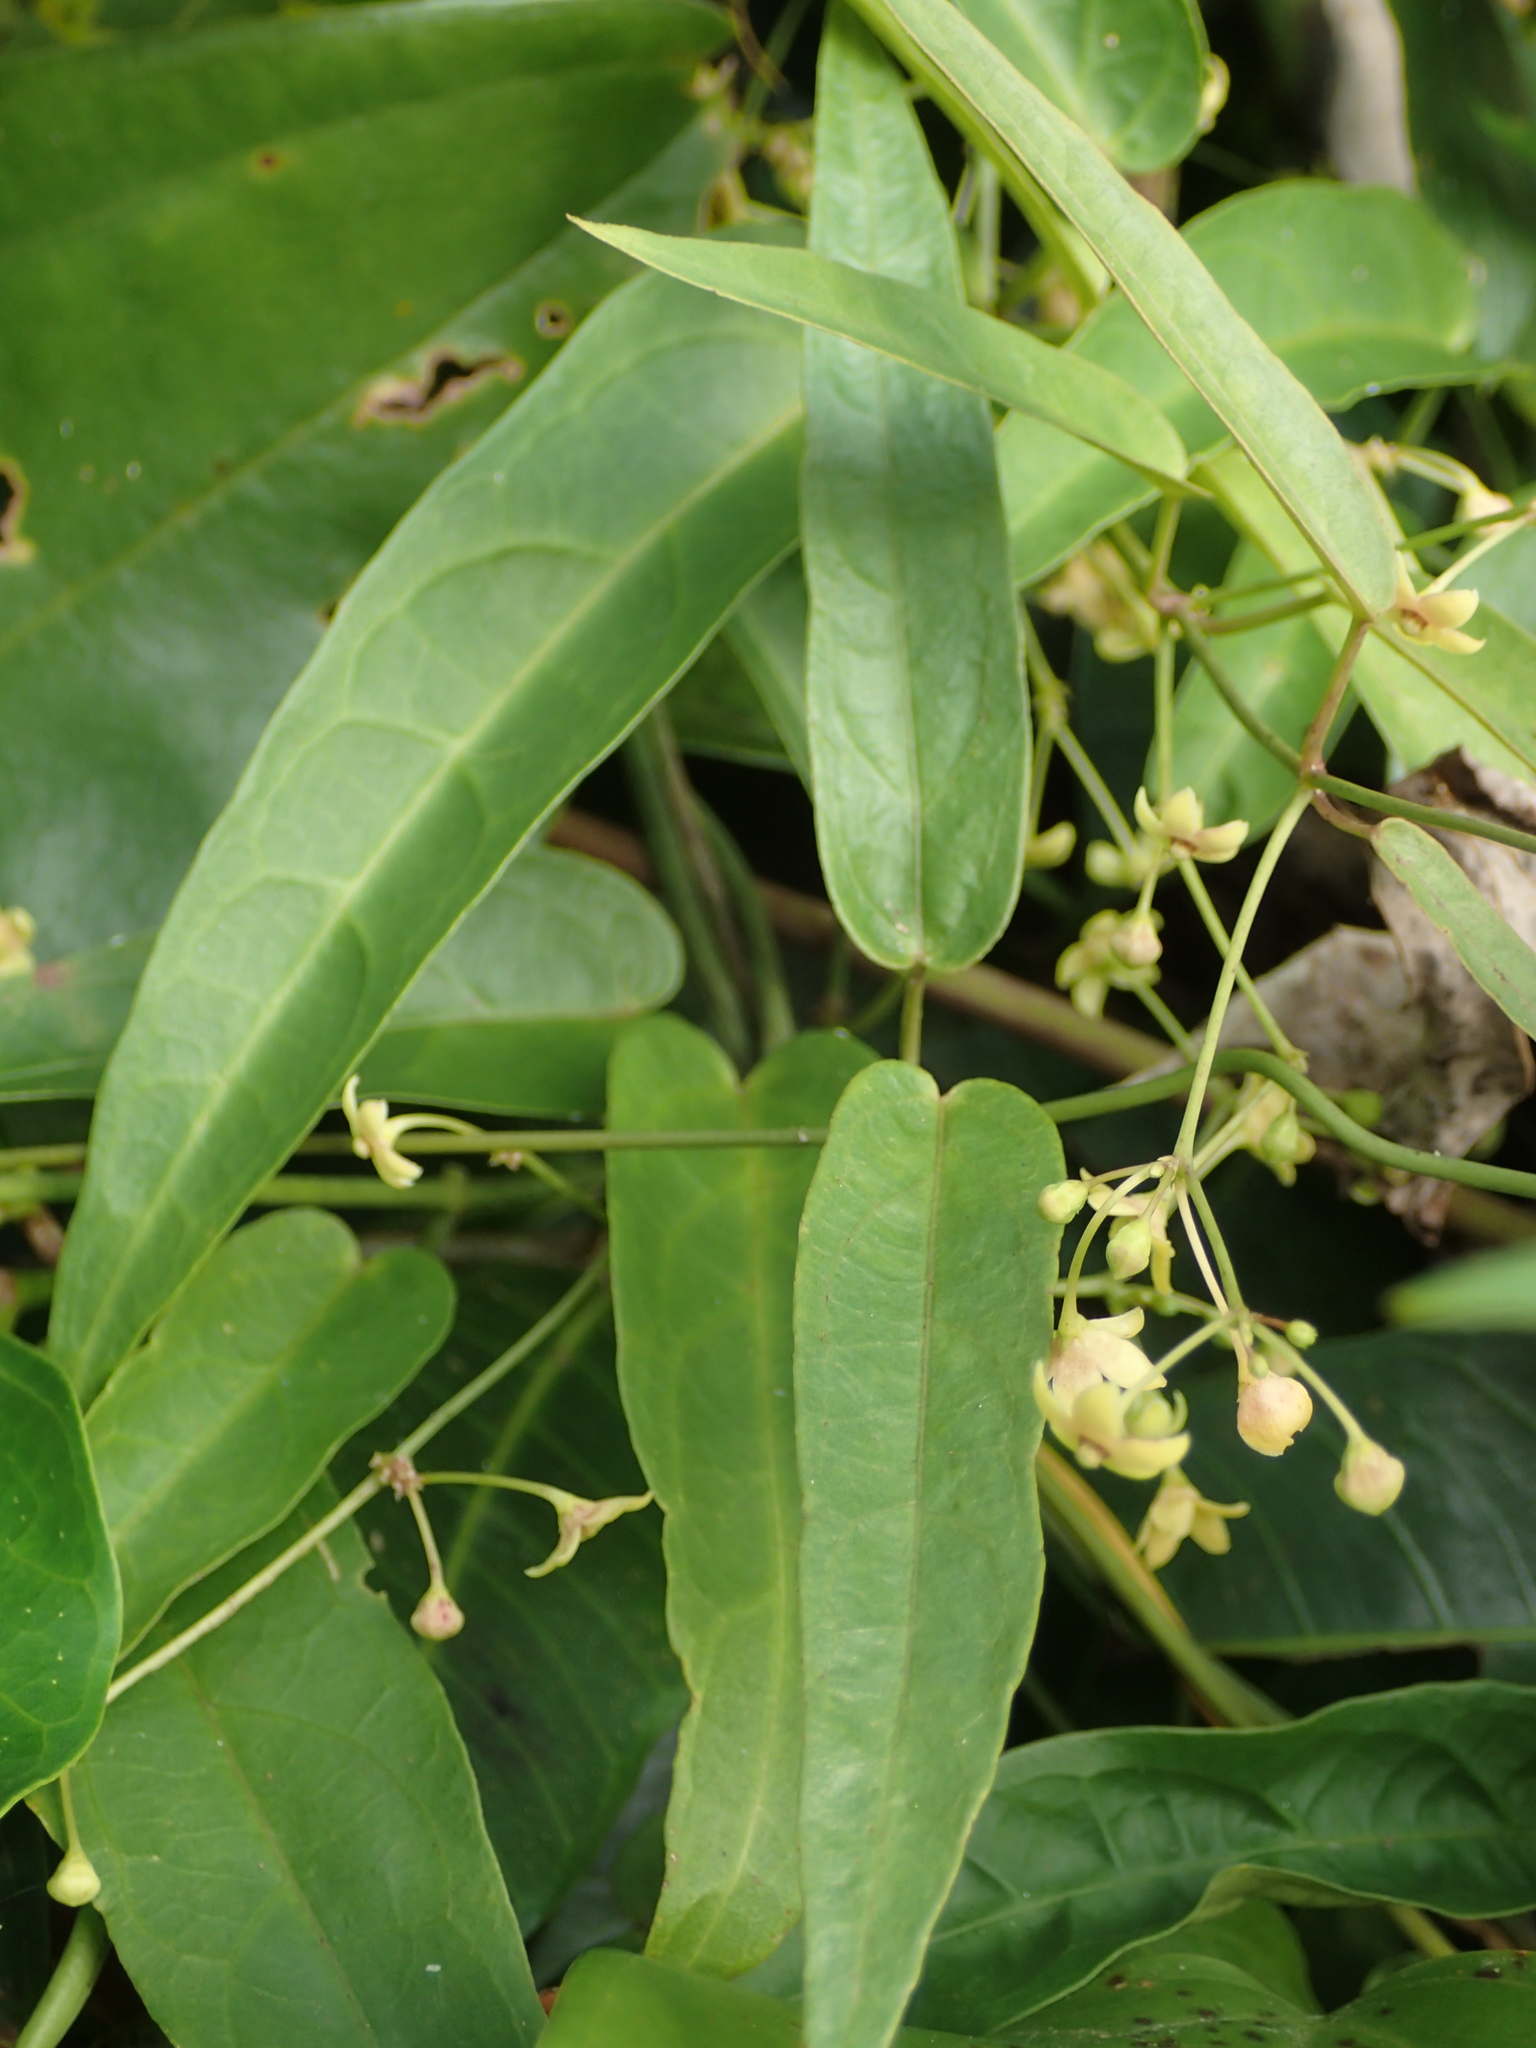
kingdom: Plantae
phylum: Tracheophyta
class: Magnoliopsida
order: Gentianales
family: Apocynaceae
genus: Vincetoxicum
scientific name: Vincetoxicum koi
